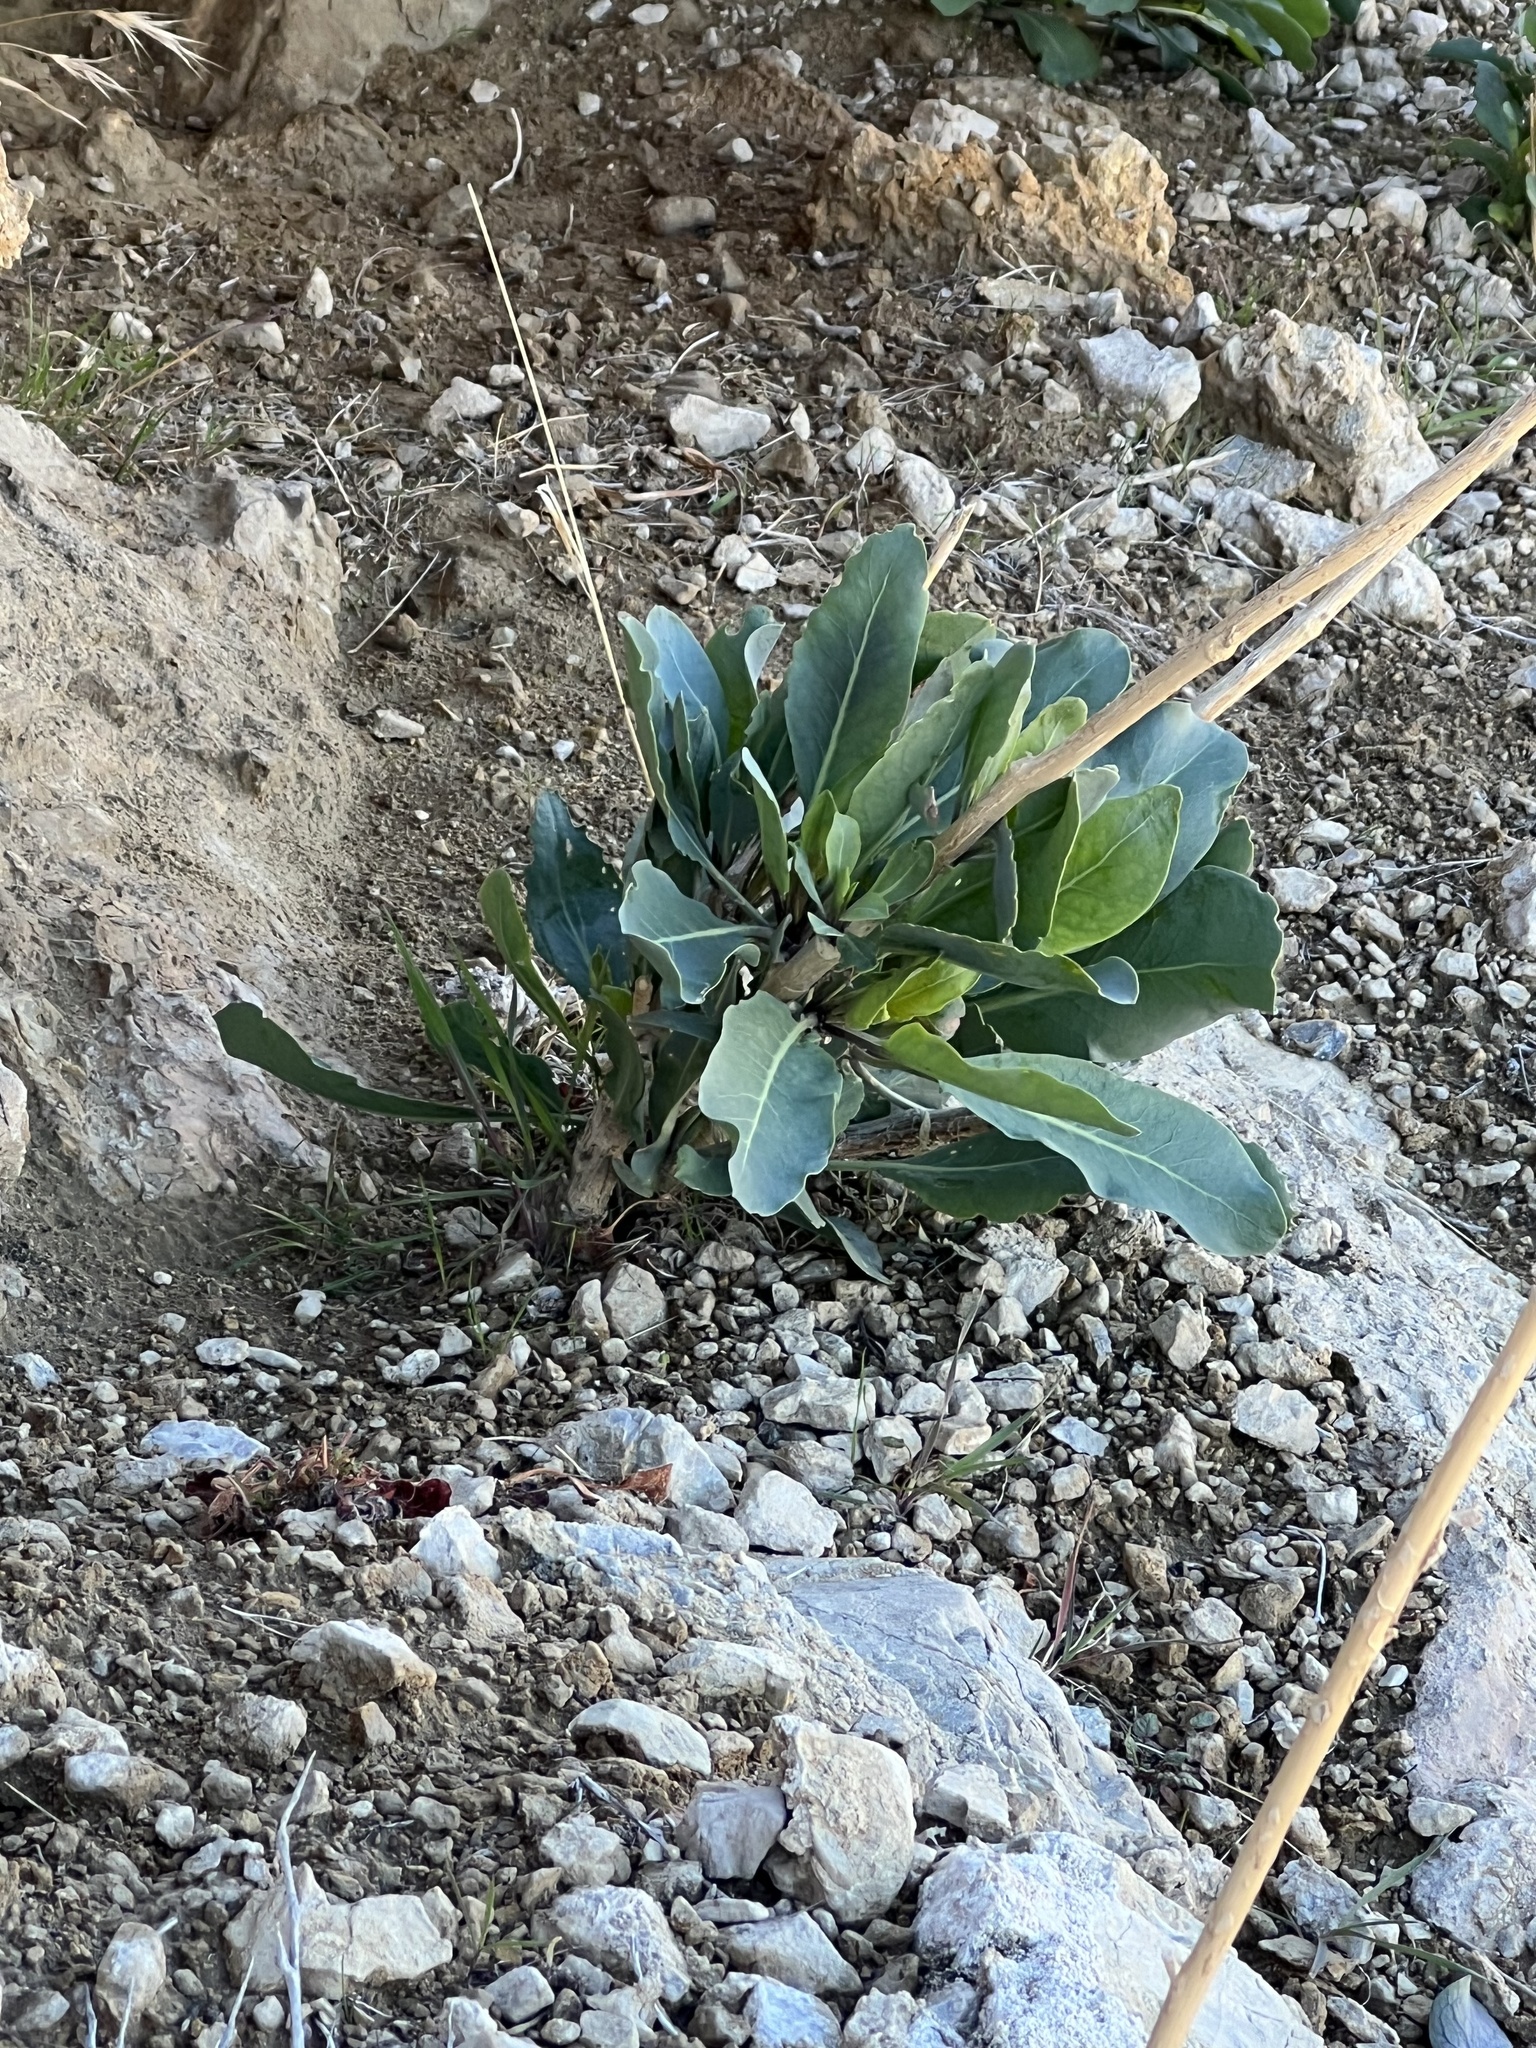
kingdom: Plantae
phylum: Tracheophyta
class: Magnoliopsida
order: Brassicales
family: Brassicaceae
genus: Stanleya
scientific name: Stanleya elata
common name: Panamint prince's plume
